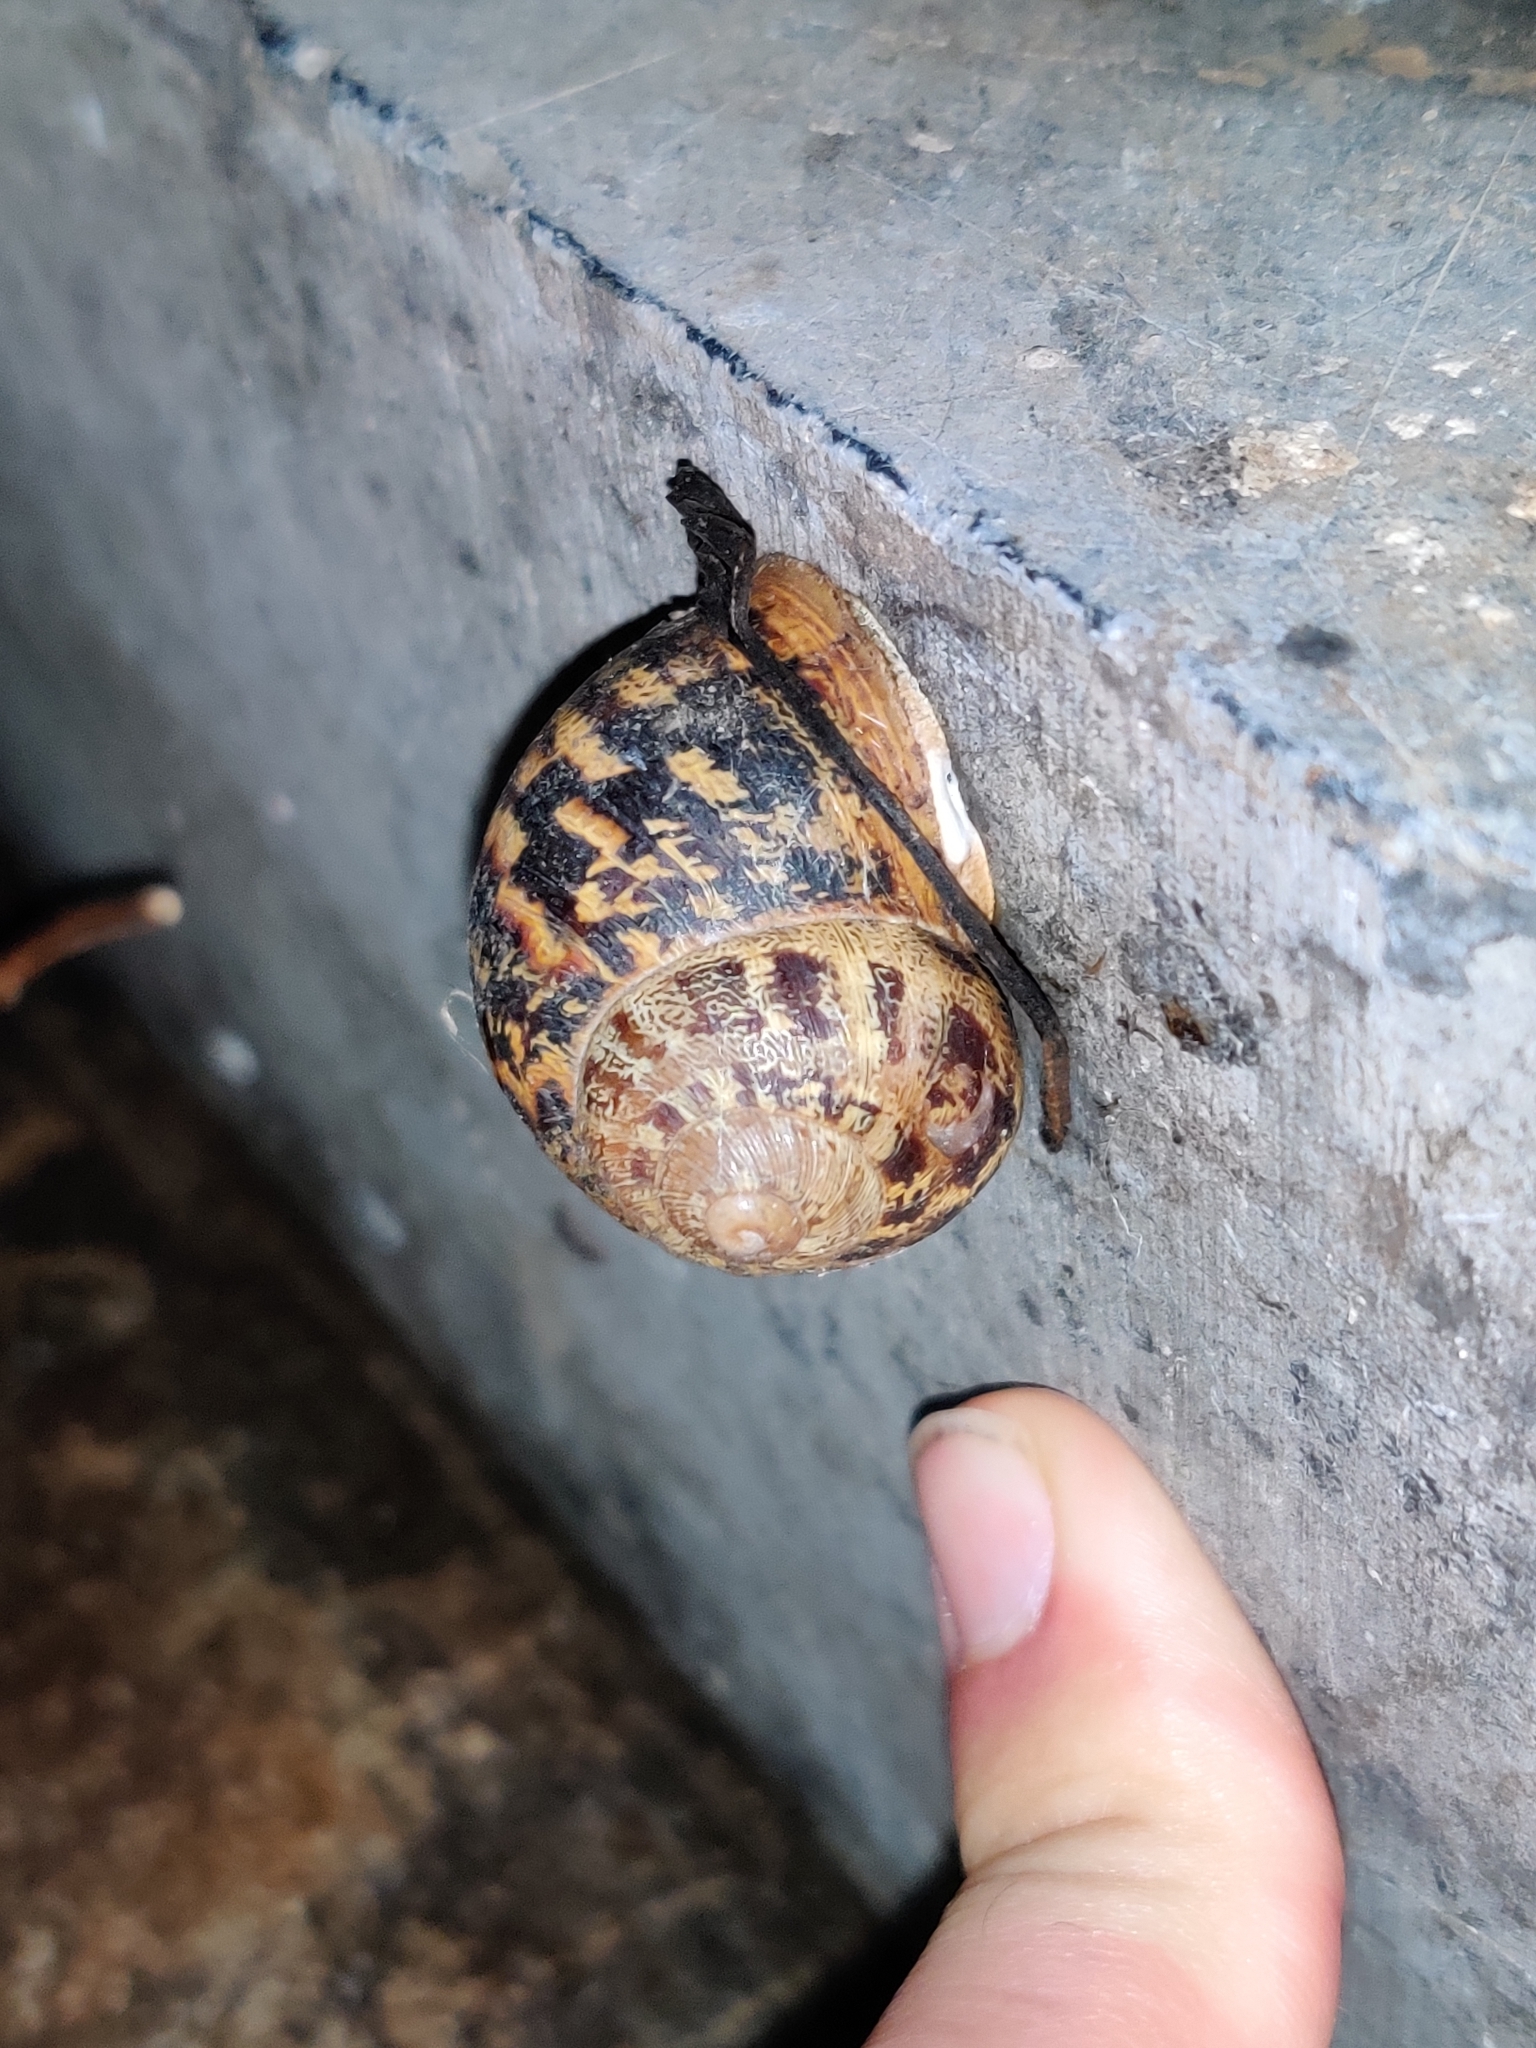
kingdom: Animalia
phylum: Mollusca
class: Gastropoda
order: Stylommatophora
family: Helicidae
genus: Cornu
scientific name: Cornu aspersum
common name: Brown garden snail
